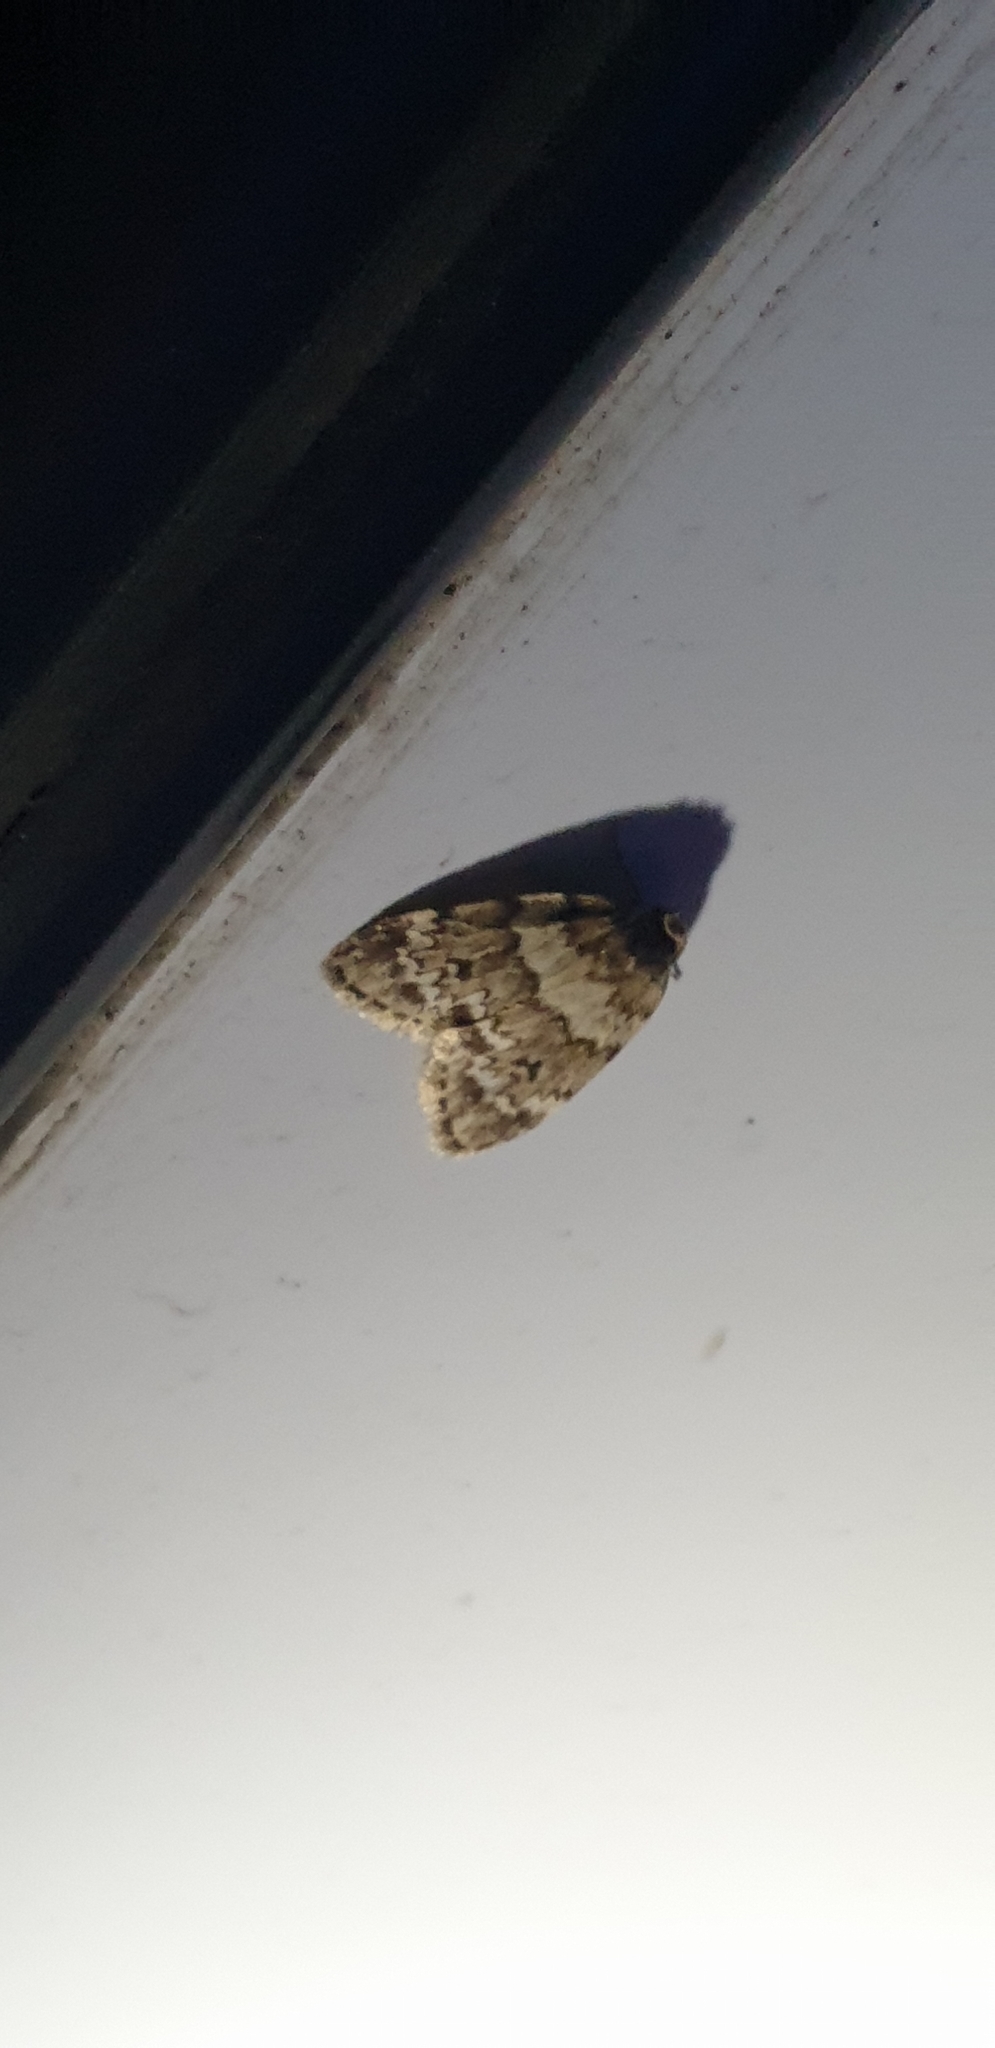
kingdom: Animalia
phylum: Arthropoda
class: Insecta
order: Lepidoptera
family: Erebidae
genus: Scaphidriotis
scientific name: Scaphidriotis xylogramma
